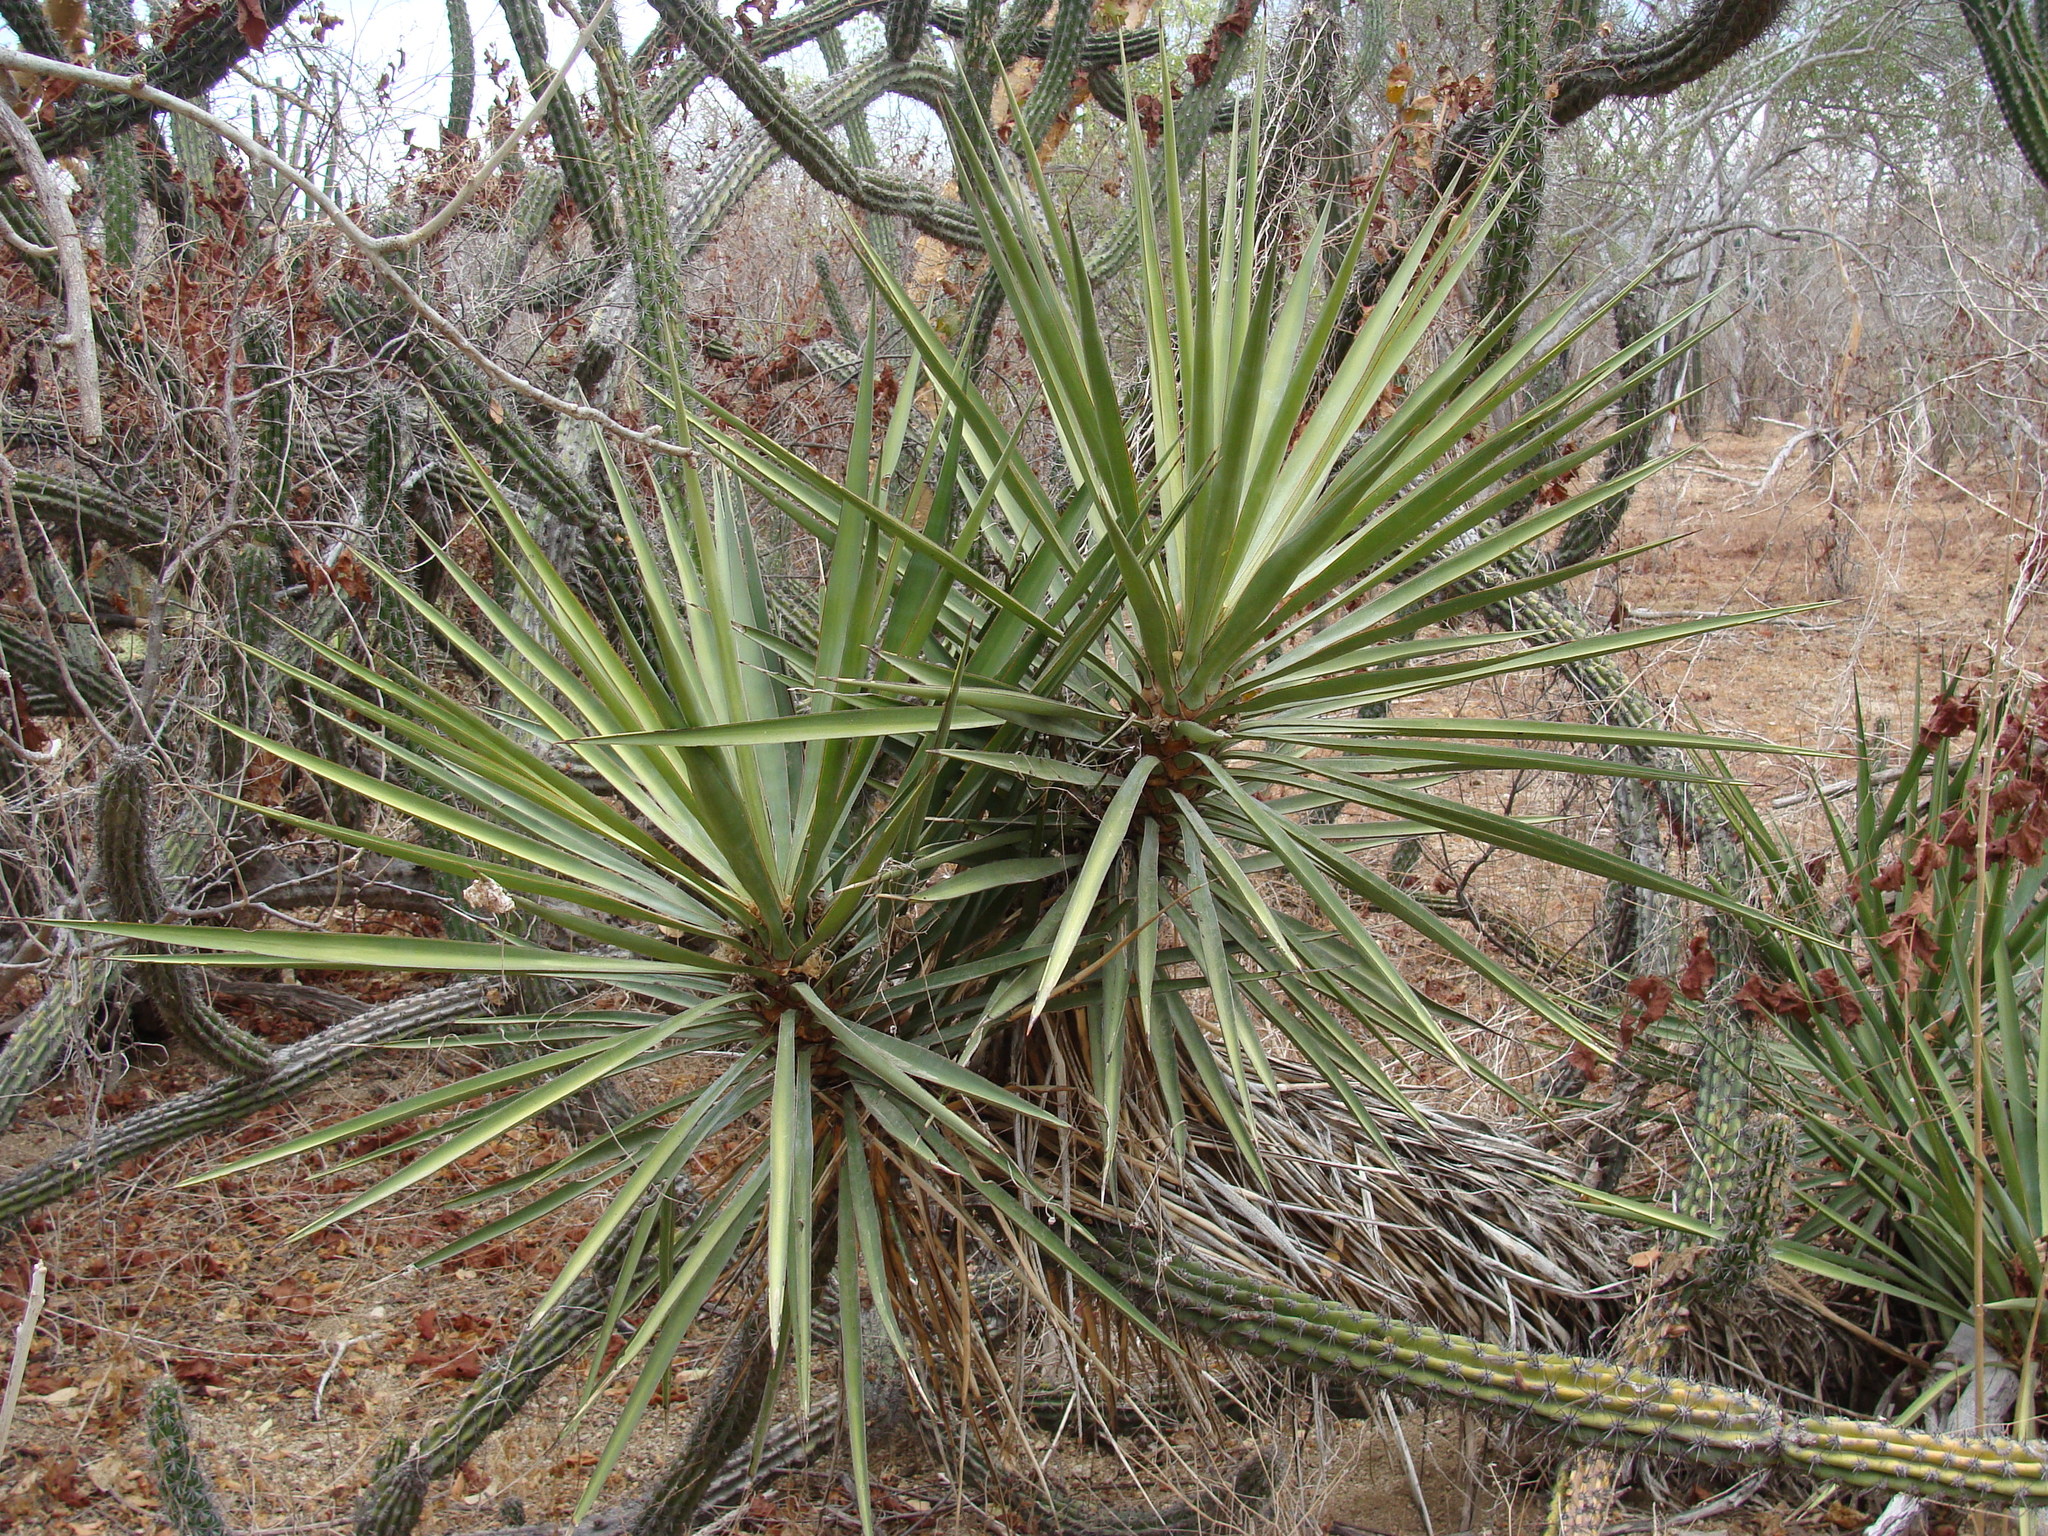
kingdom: Plantae
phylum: Tracheophyta
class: Liliopsida
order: Asparagales
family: Asparagaceae
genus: Yucca
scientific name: Yucca capensis
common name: Cape region yucca
